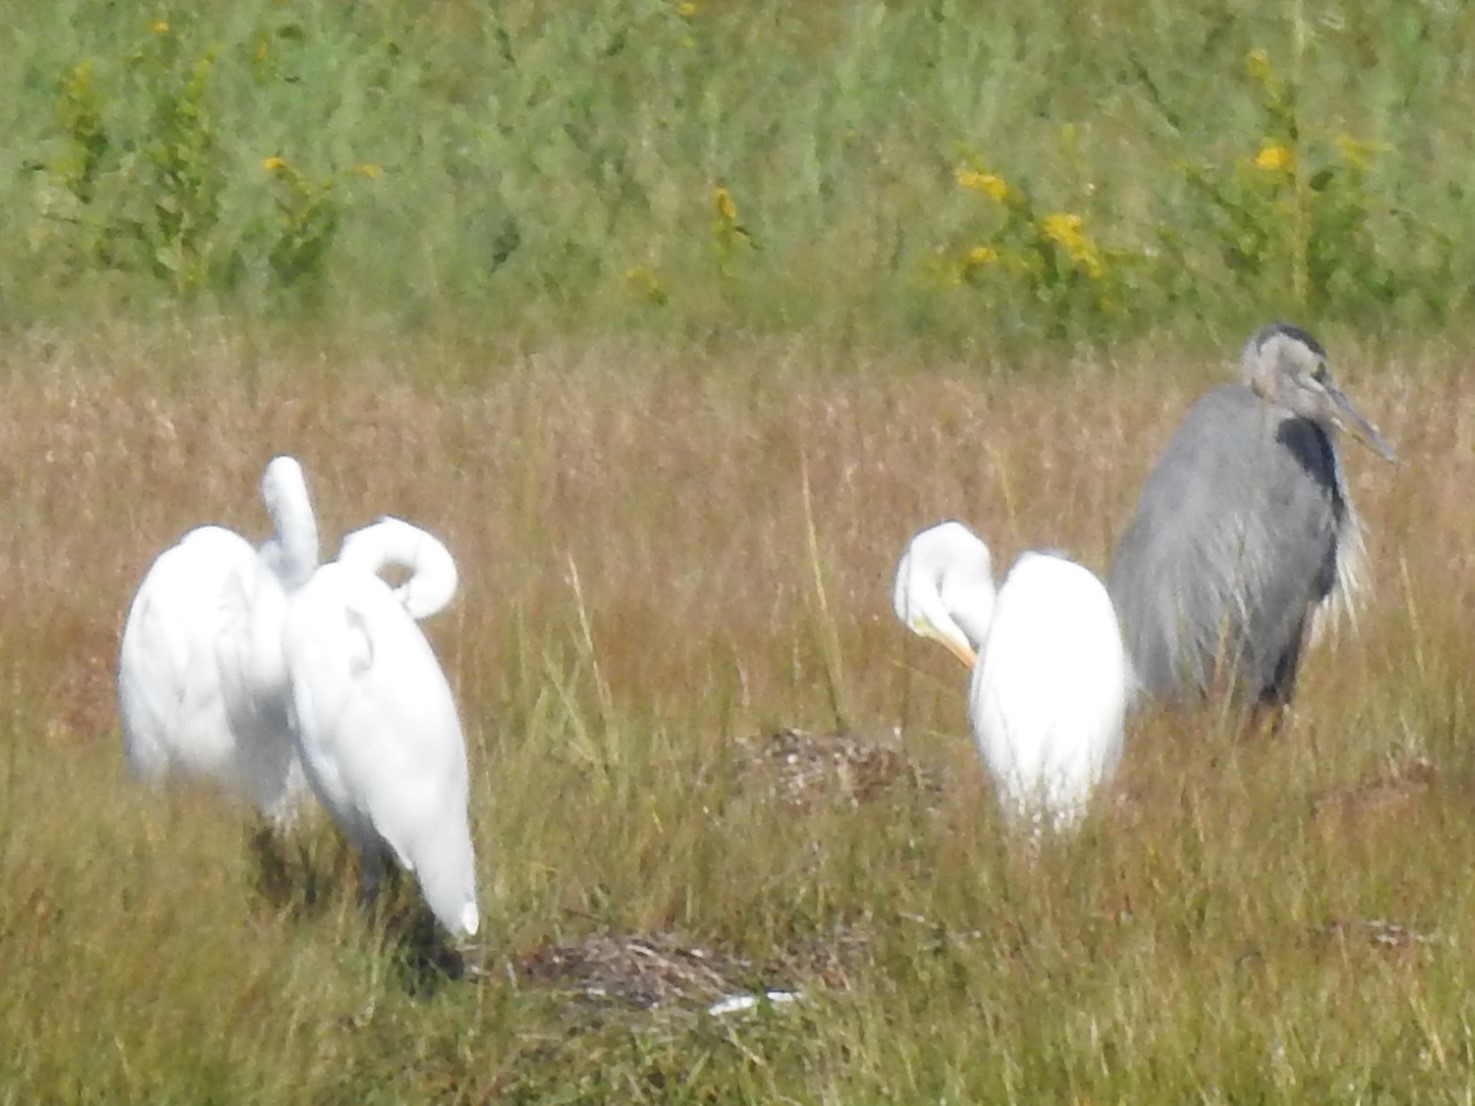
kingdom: Animalia
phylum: Chordata
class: Aves
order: Pelecaniformes
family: Ardeidae
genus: Ardea
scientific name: Ardea herodias
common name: Great blue heron
